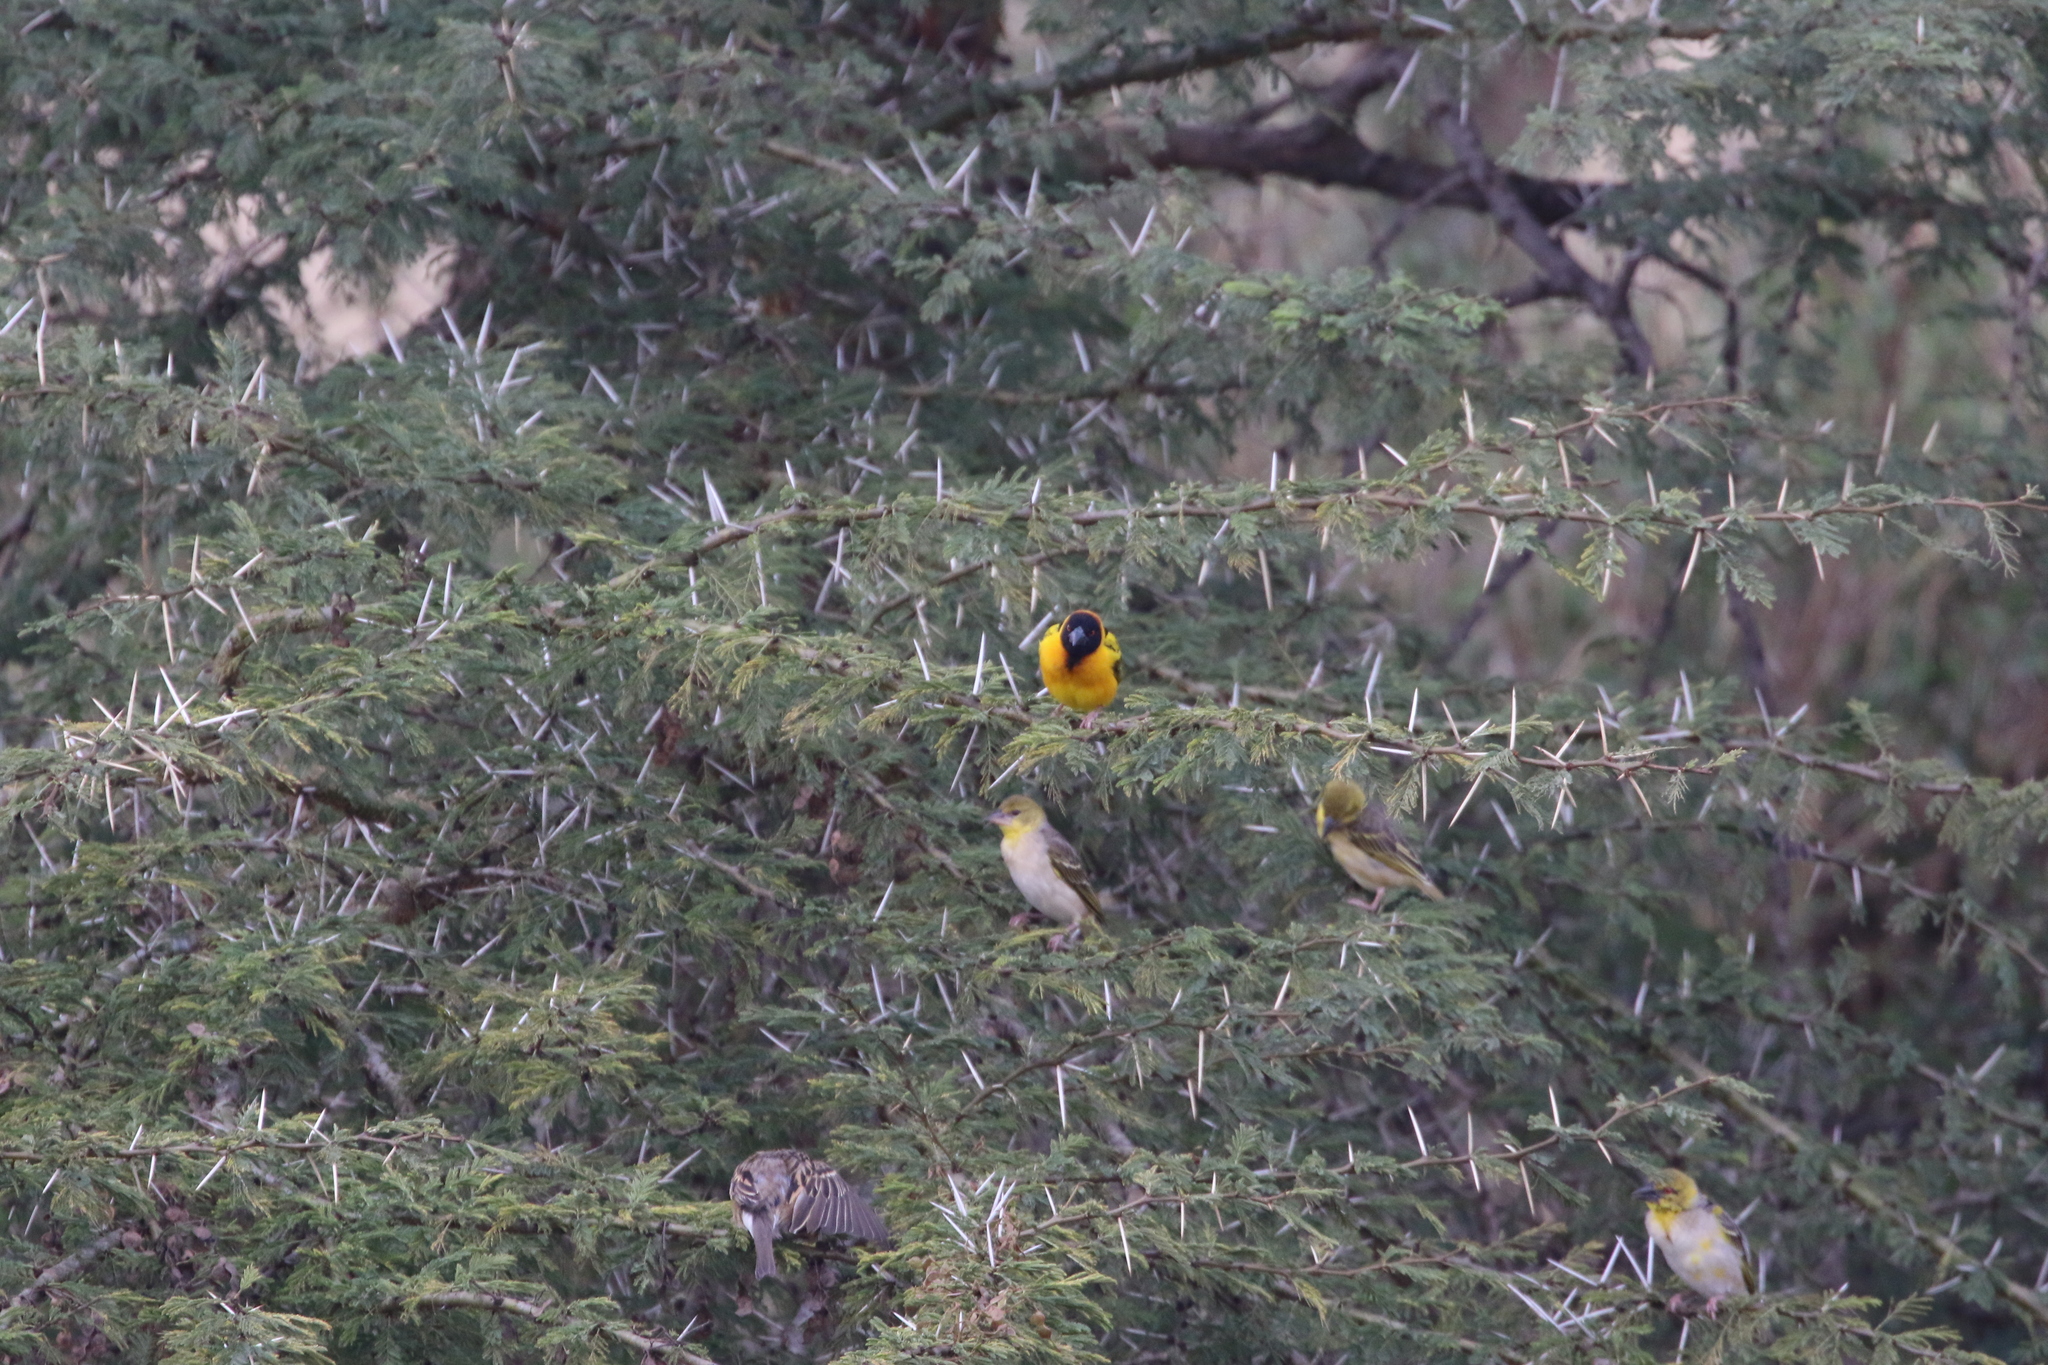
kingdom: Animalia
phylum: Chordata
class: Aves
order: Passeriformes
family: Ploceidae
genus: Ploceus
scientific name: Ploceus cucullatus
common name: Village weaver
